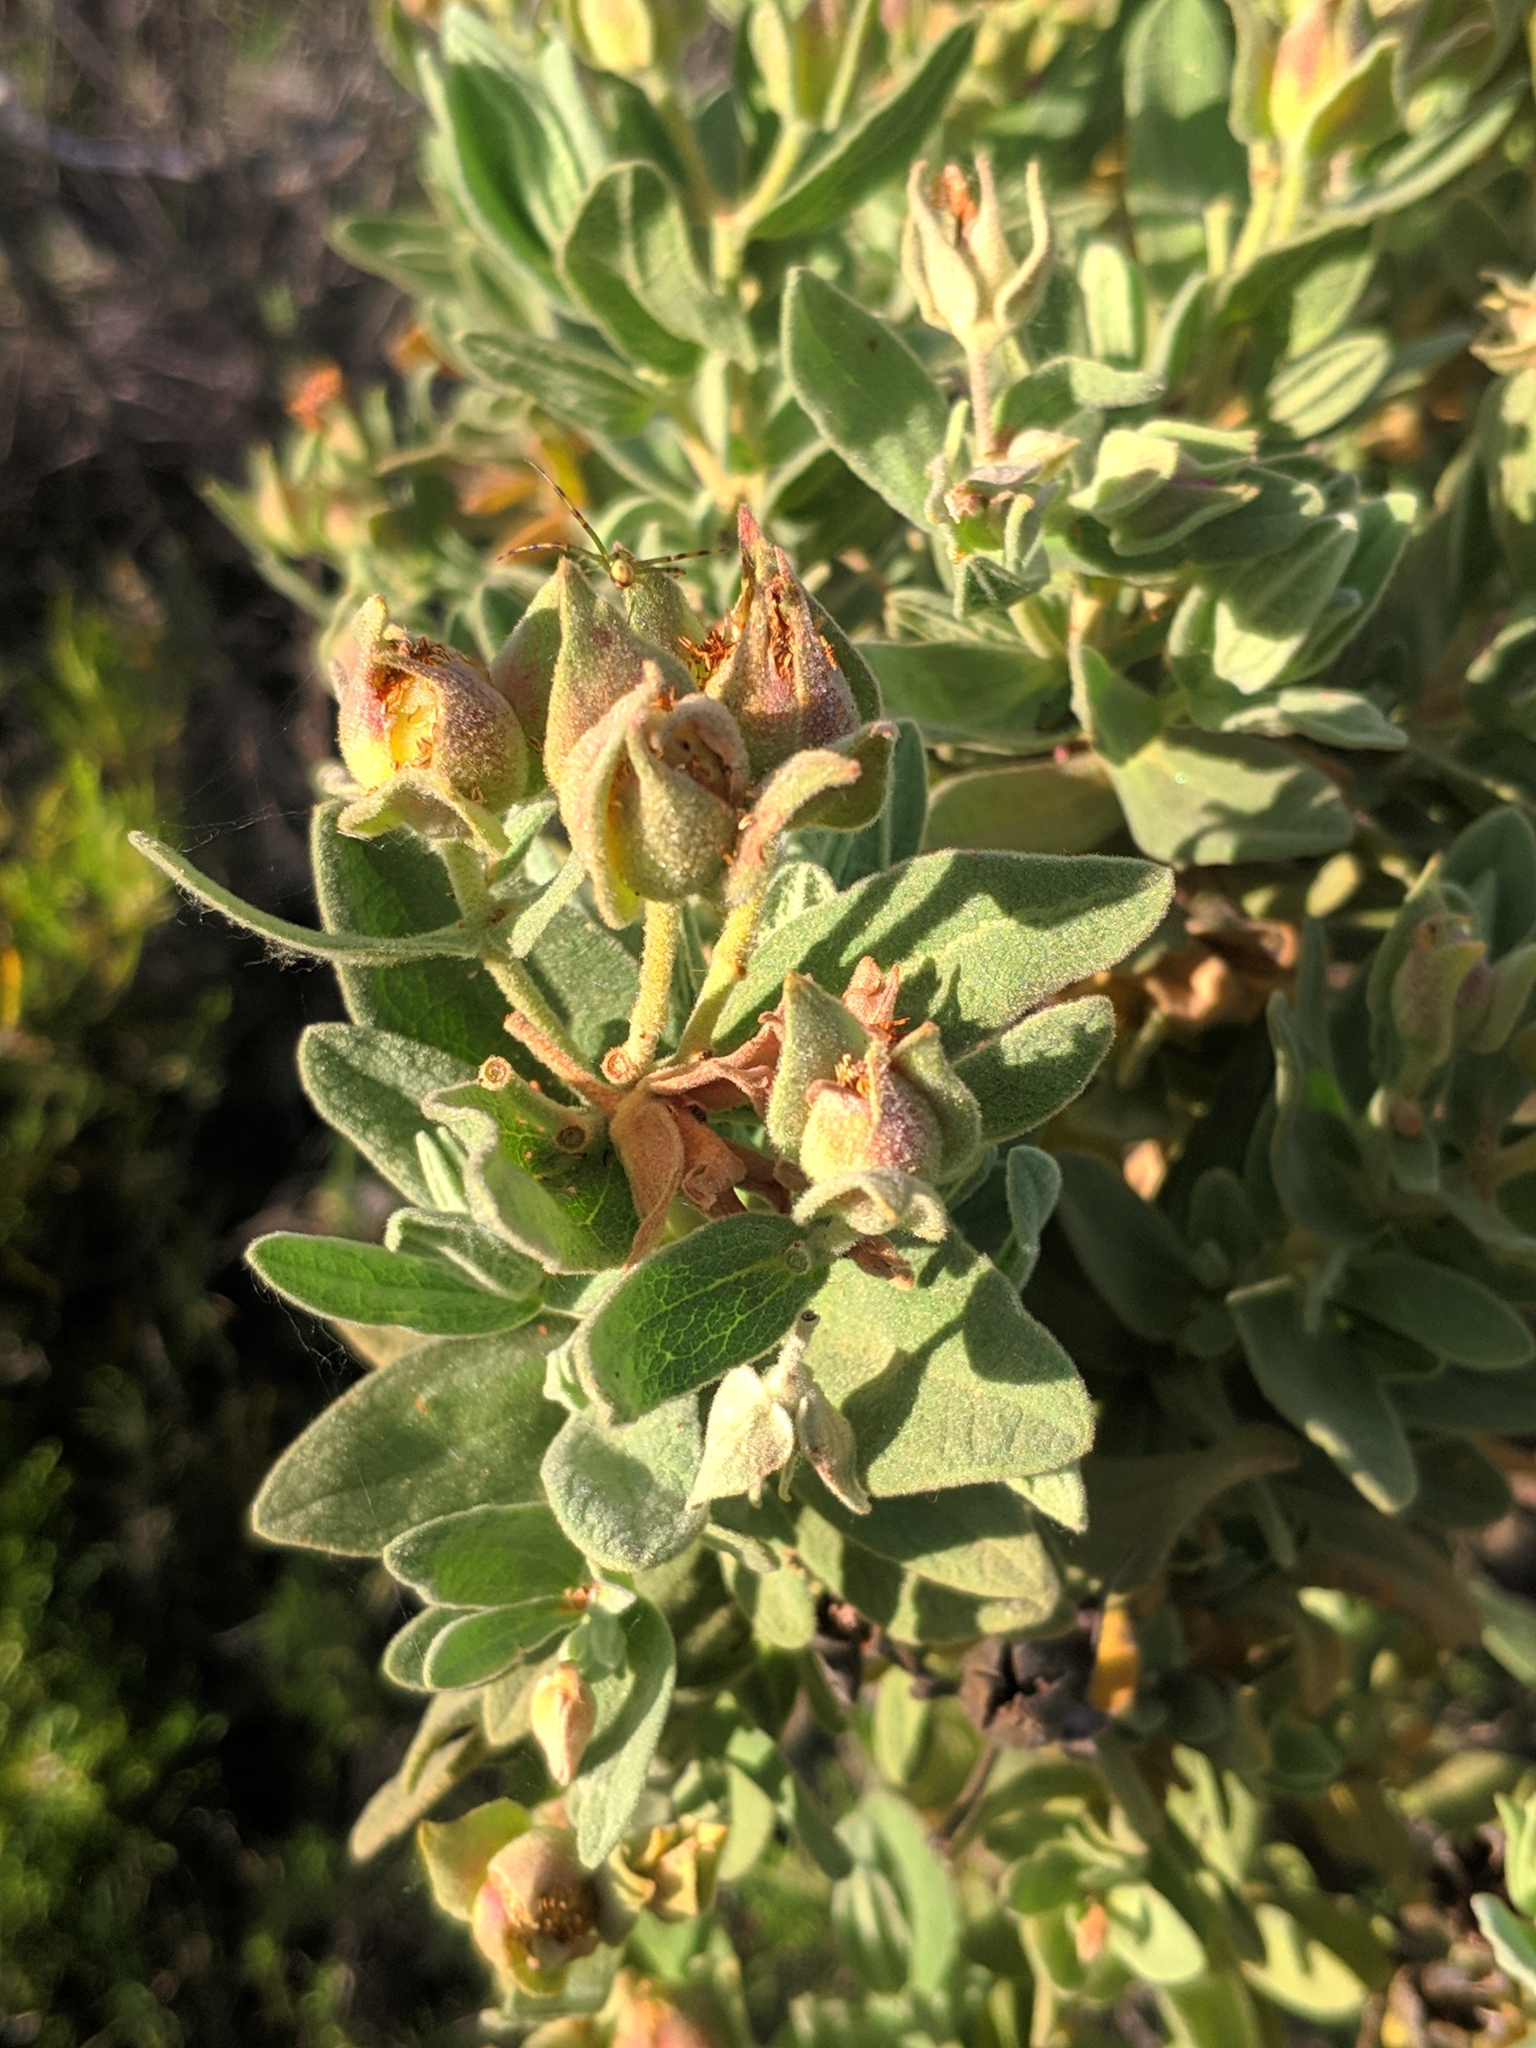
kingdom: Plantae
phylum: Tracheophyta
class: Magnoliopsida
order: Malvales
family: Cistaceae
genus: Cistus
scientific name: Cistus albidus
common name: White-leaf rock-rose
